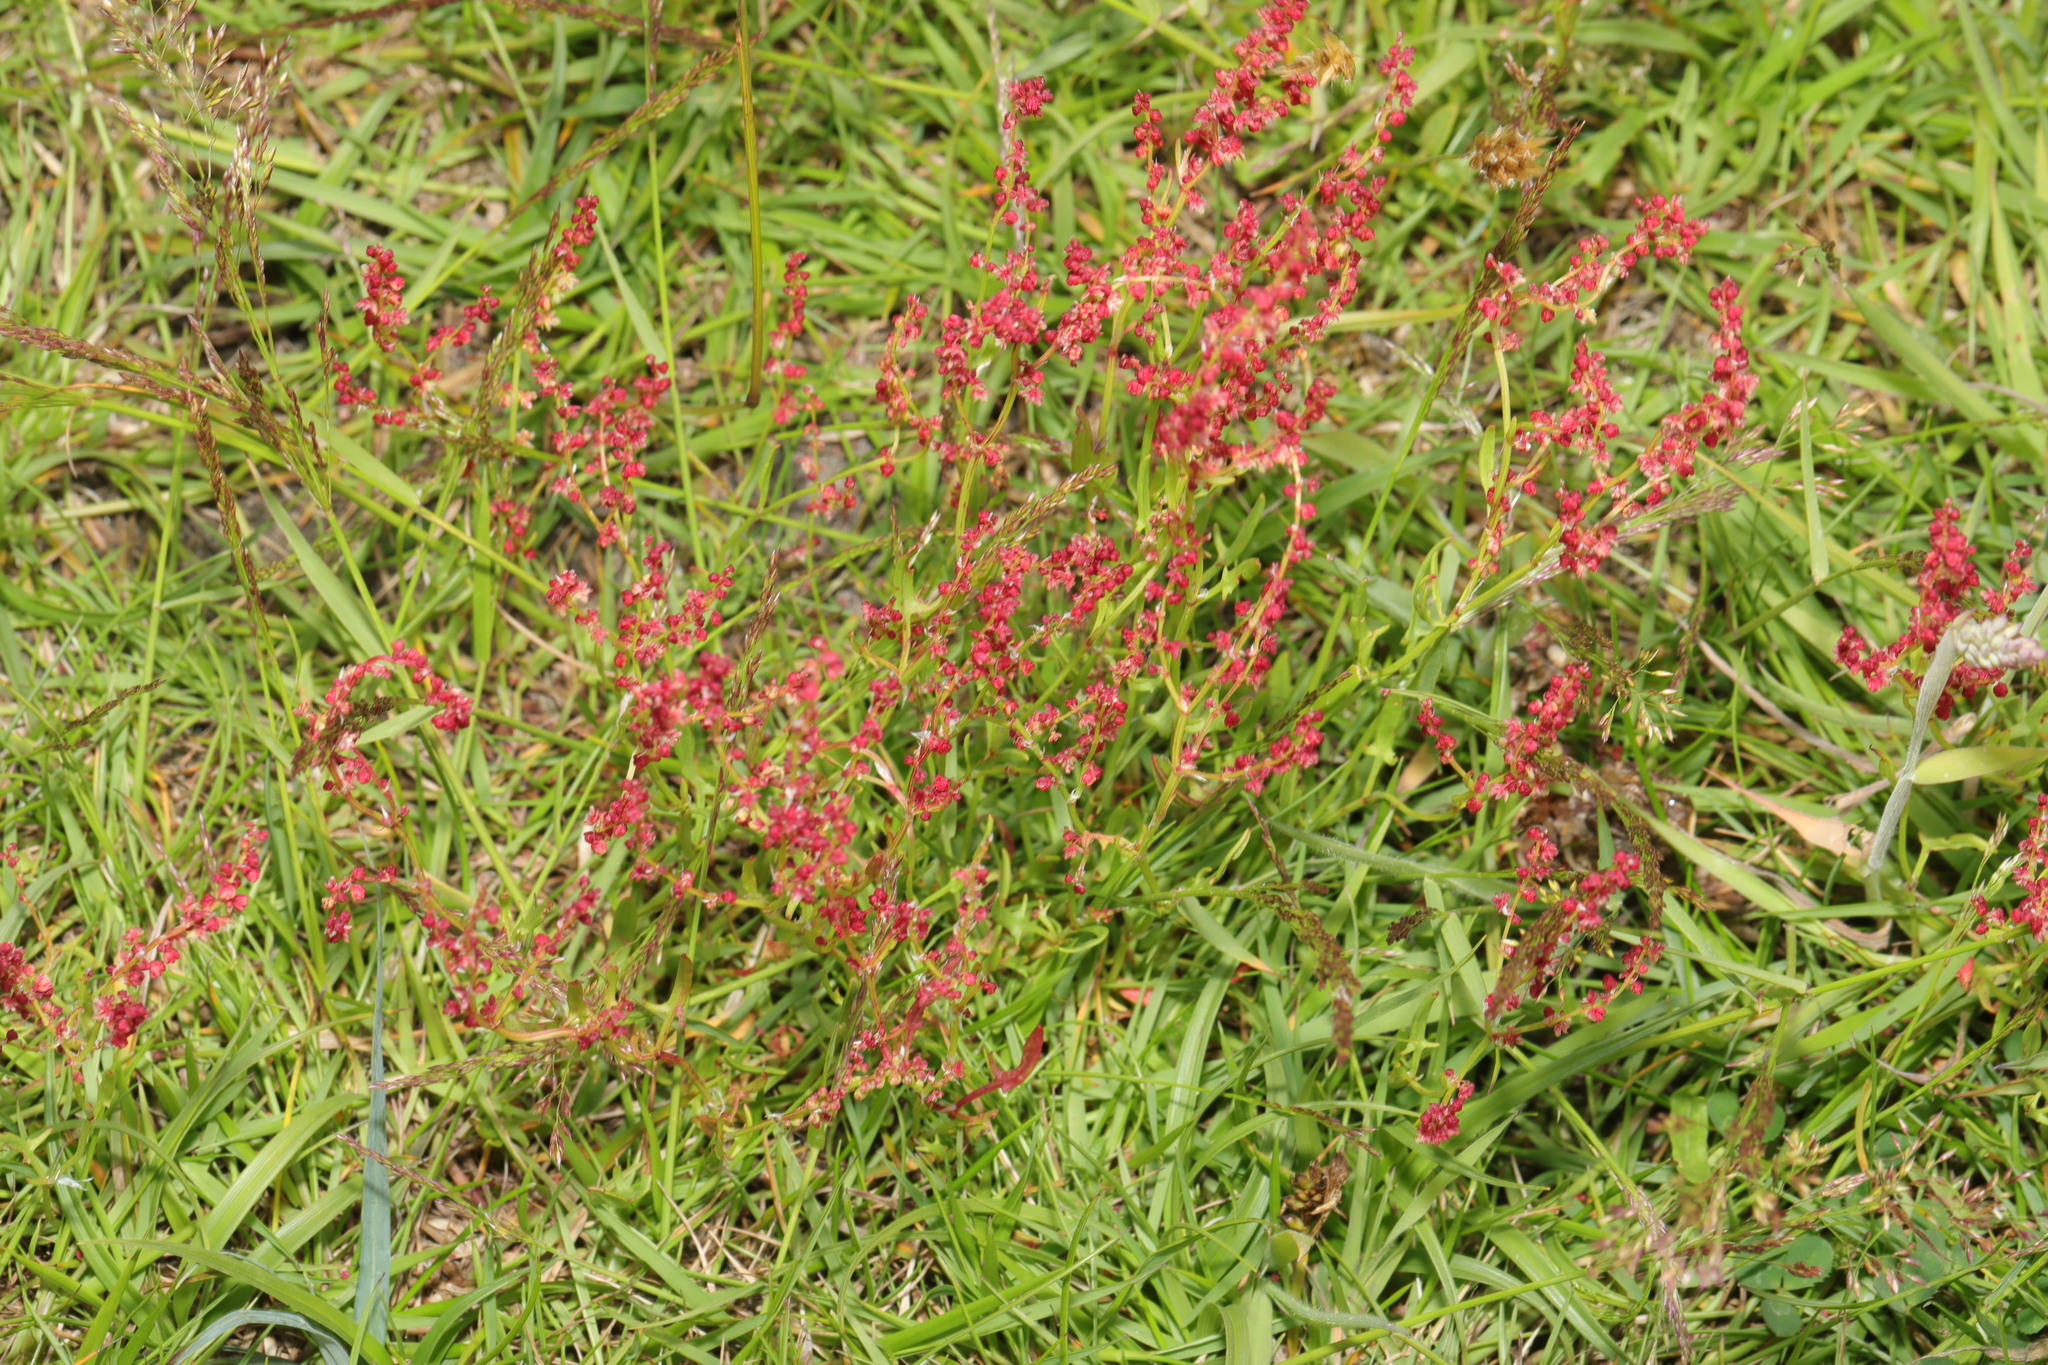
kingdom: Plantae
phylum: Tracheophyta
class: Magnoliopsida
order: Caryophyllales
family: Polygonaceae
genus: Rumex
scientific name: Rumex acetosella
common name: Common sheep sorrel
